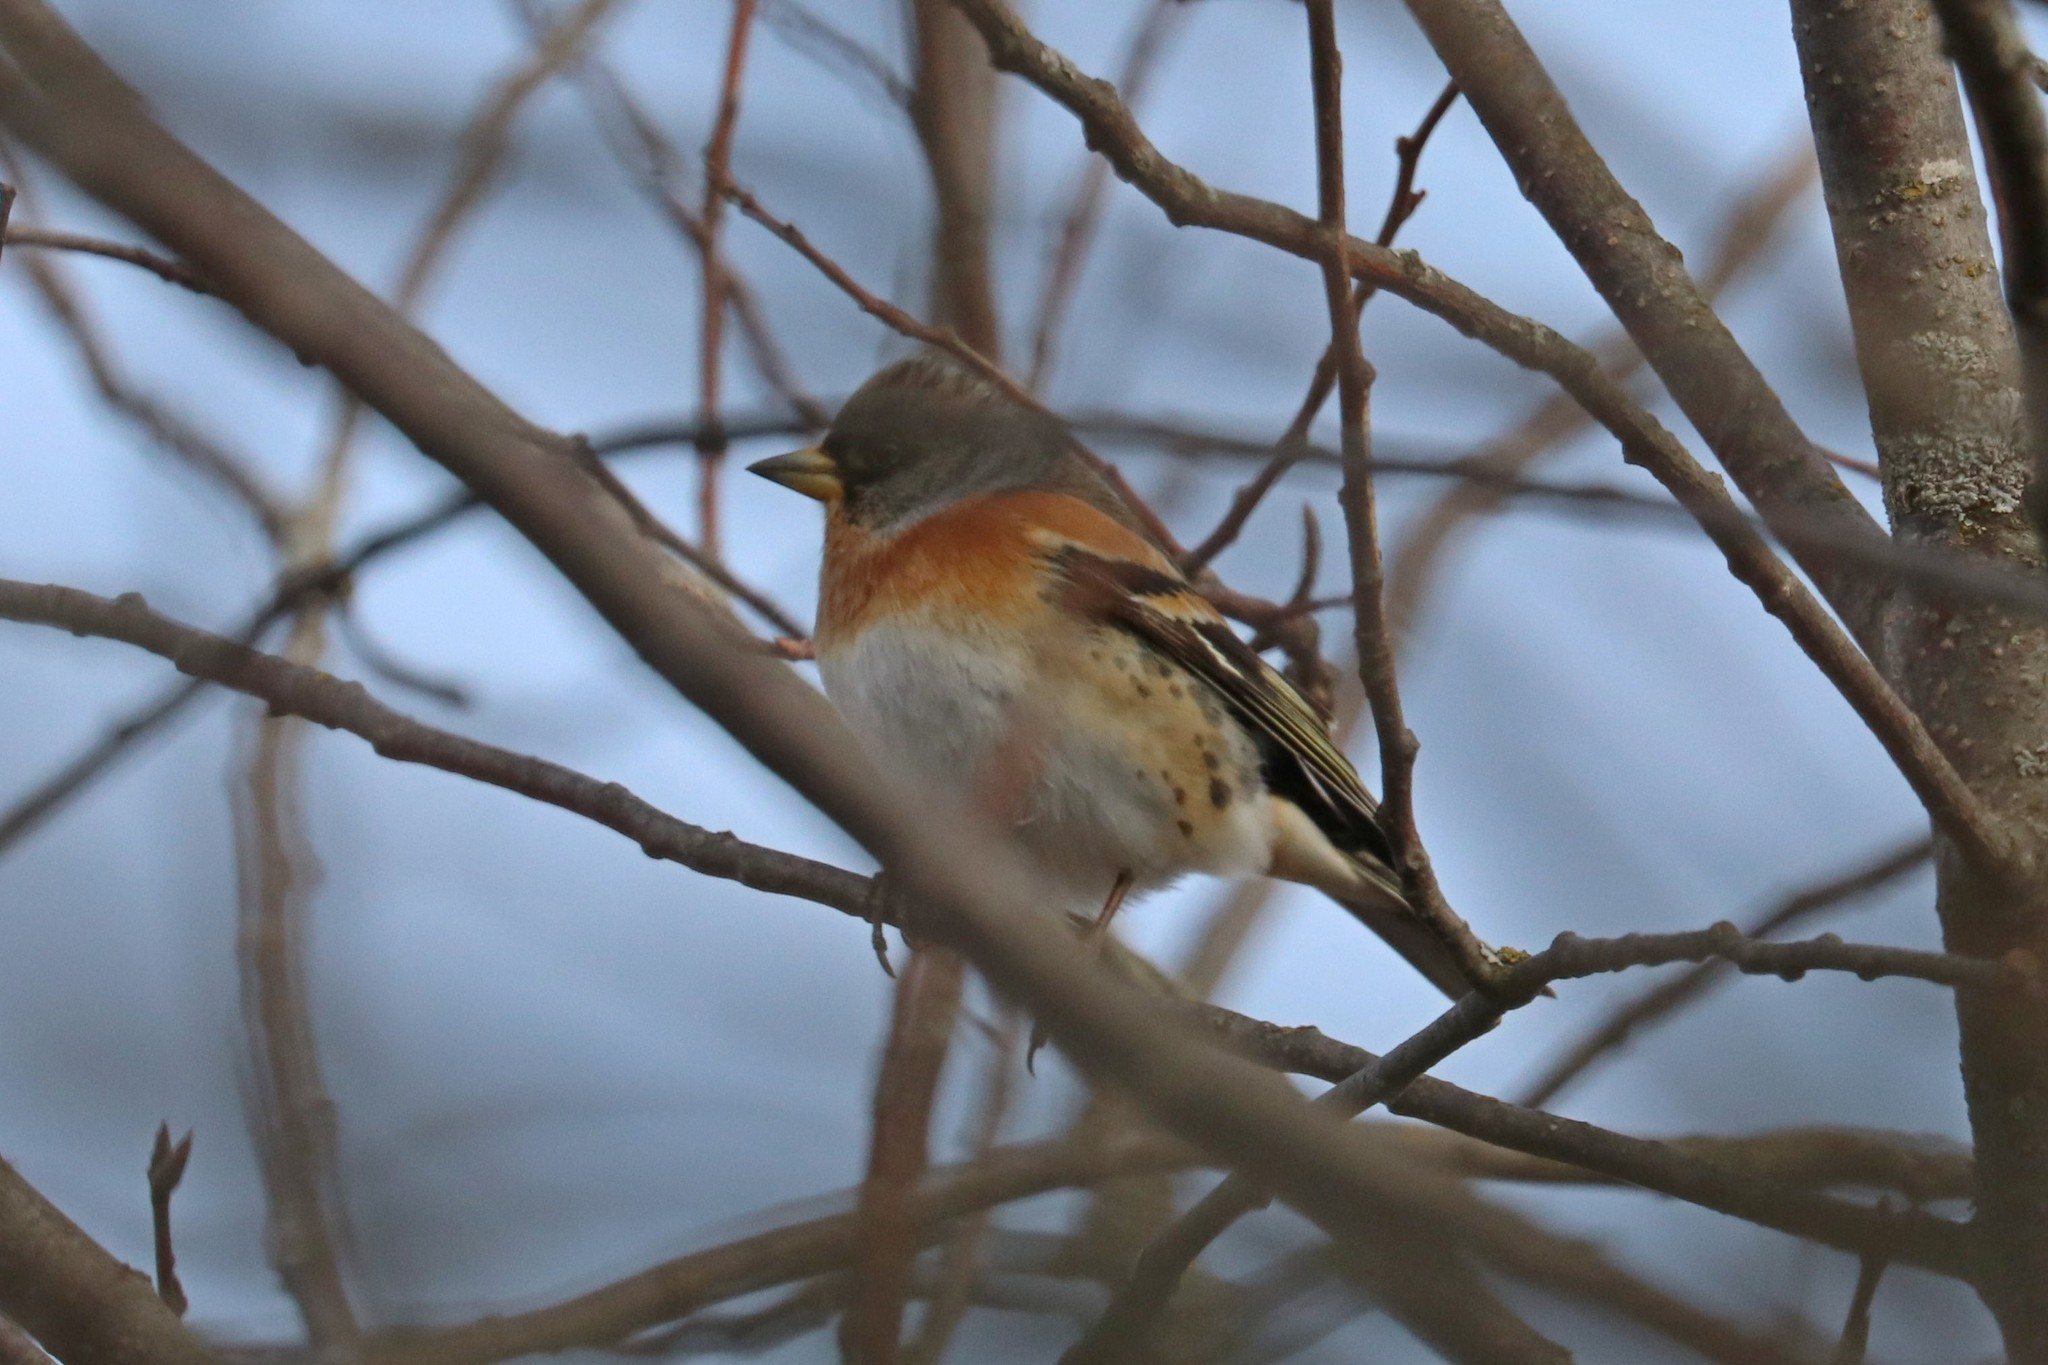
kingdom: Animalia
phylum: Chordata
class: Aves
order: Passeriformes
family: Fringillidae
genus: Fringilla
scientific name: Fringilla montifringilla
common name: Brambling
